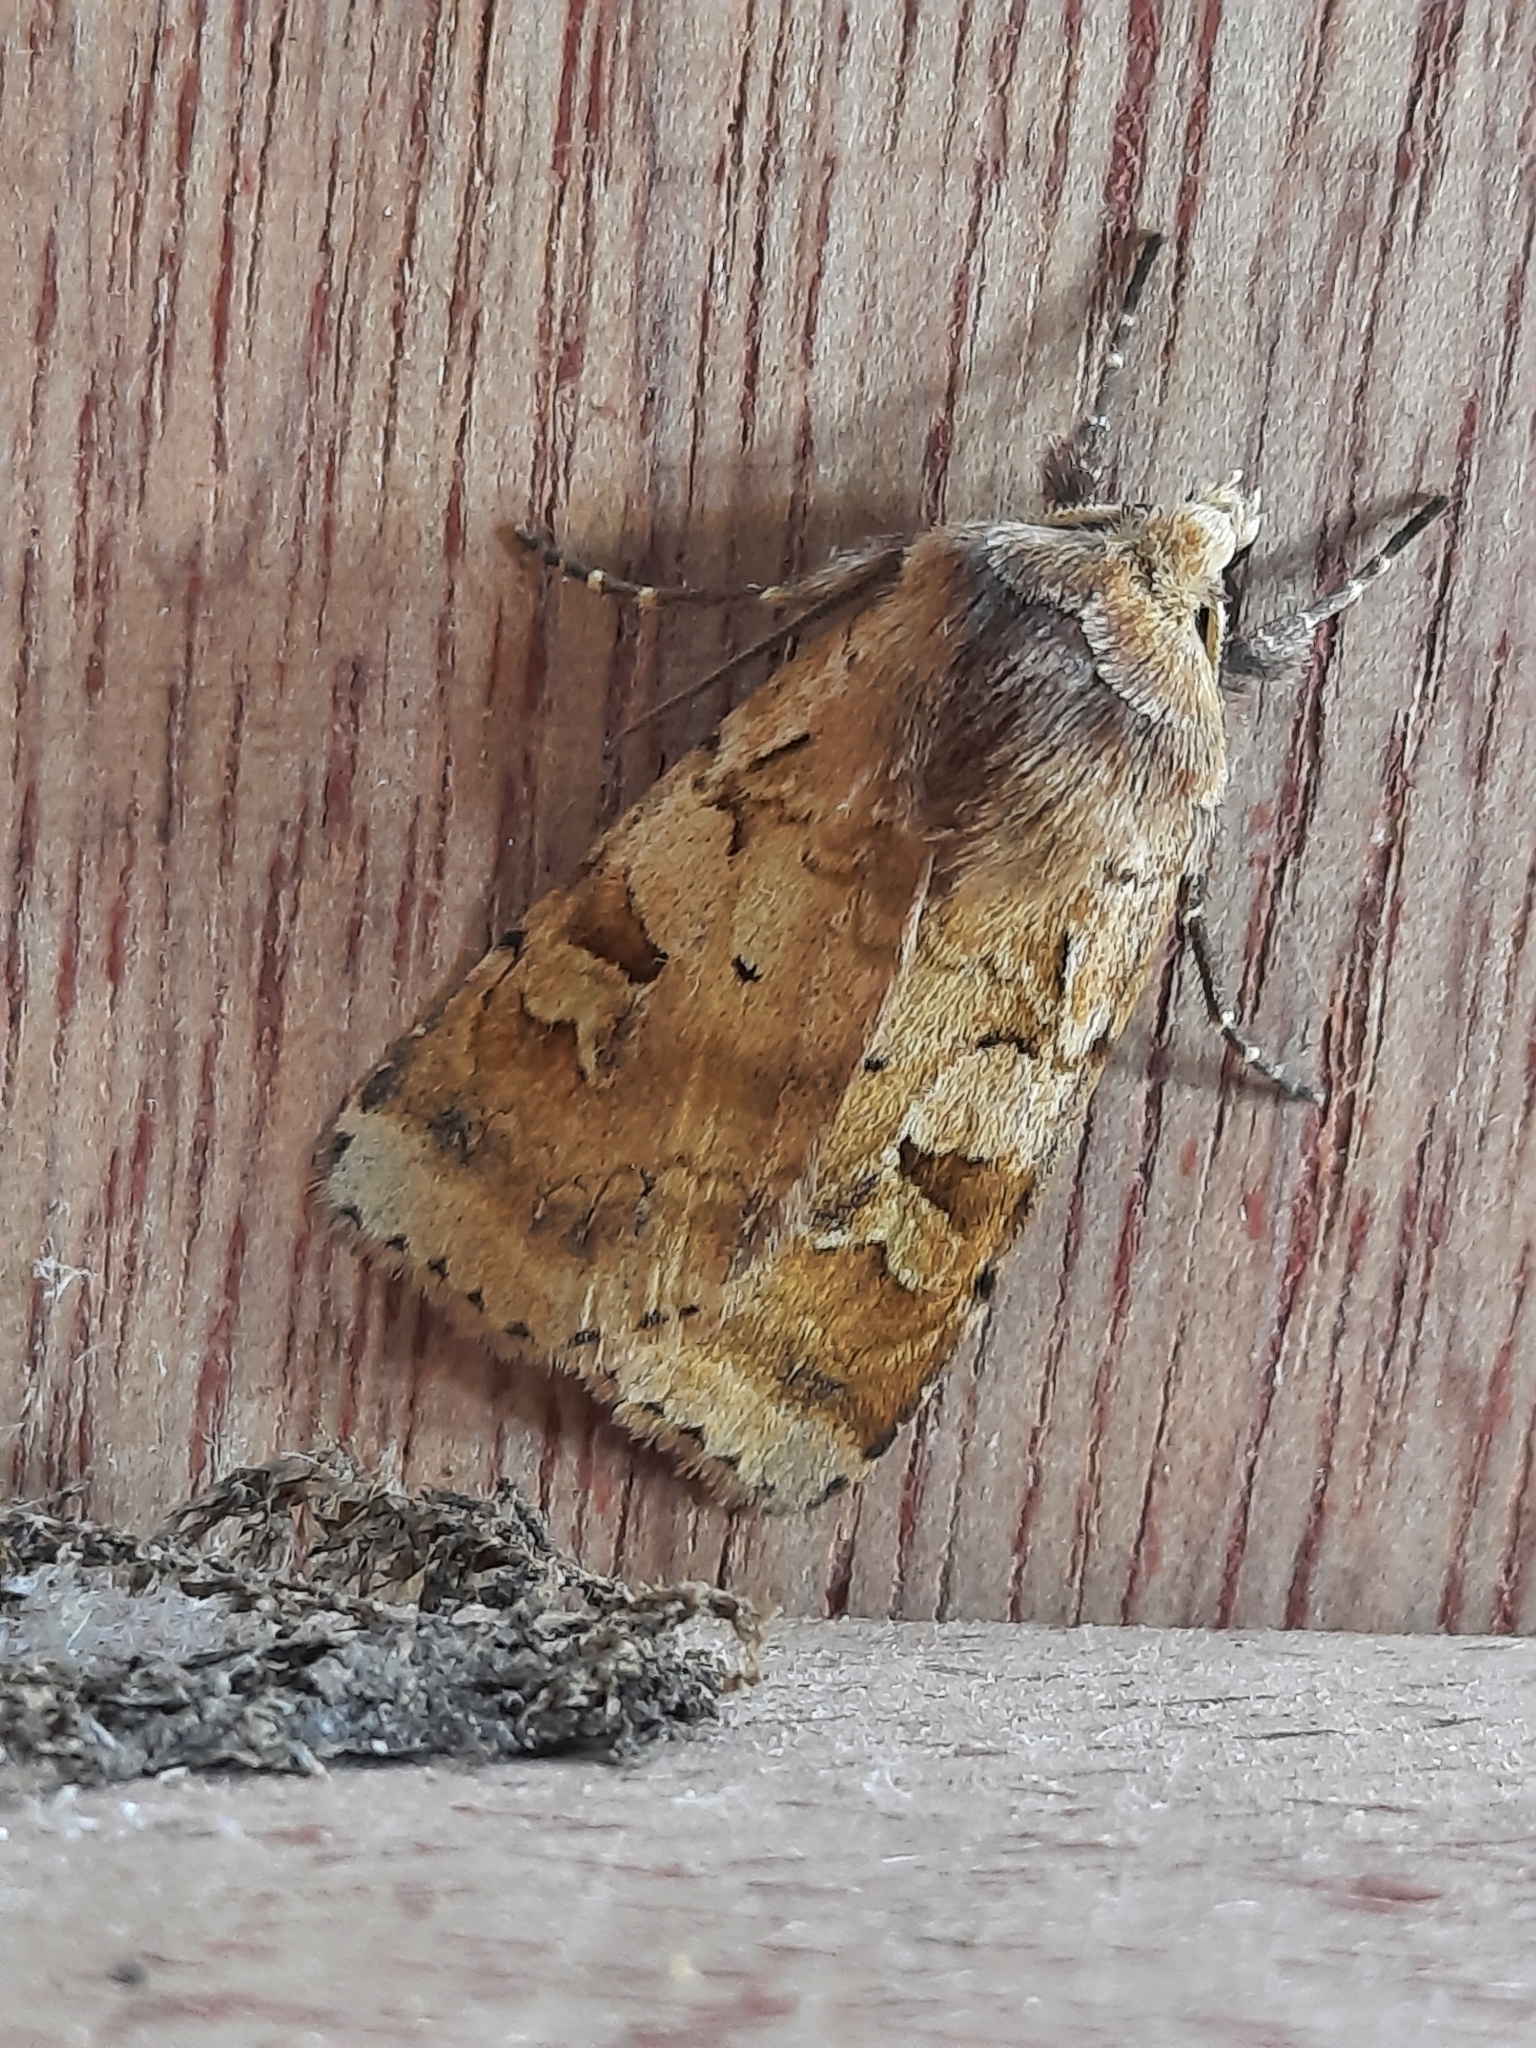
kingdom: Animalia
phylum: Arthropoda
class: Insecta
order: Lepidoptera
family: Noctuidae
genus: Diarsia
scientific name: Diarsia mendica
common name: Ingrailed clay
